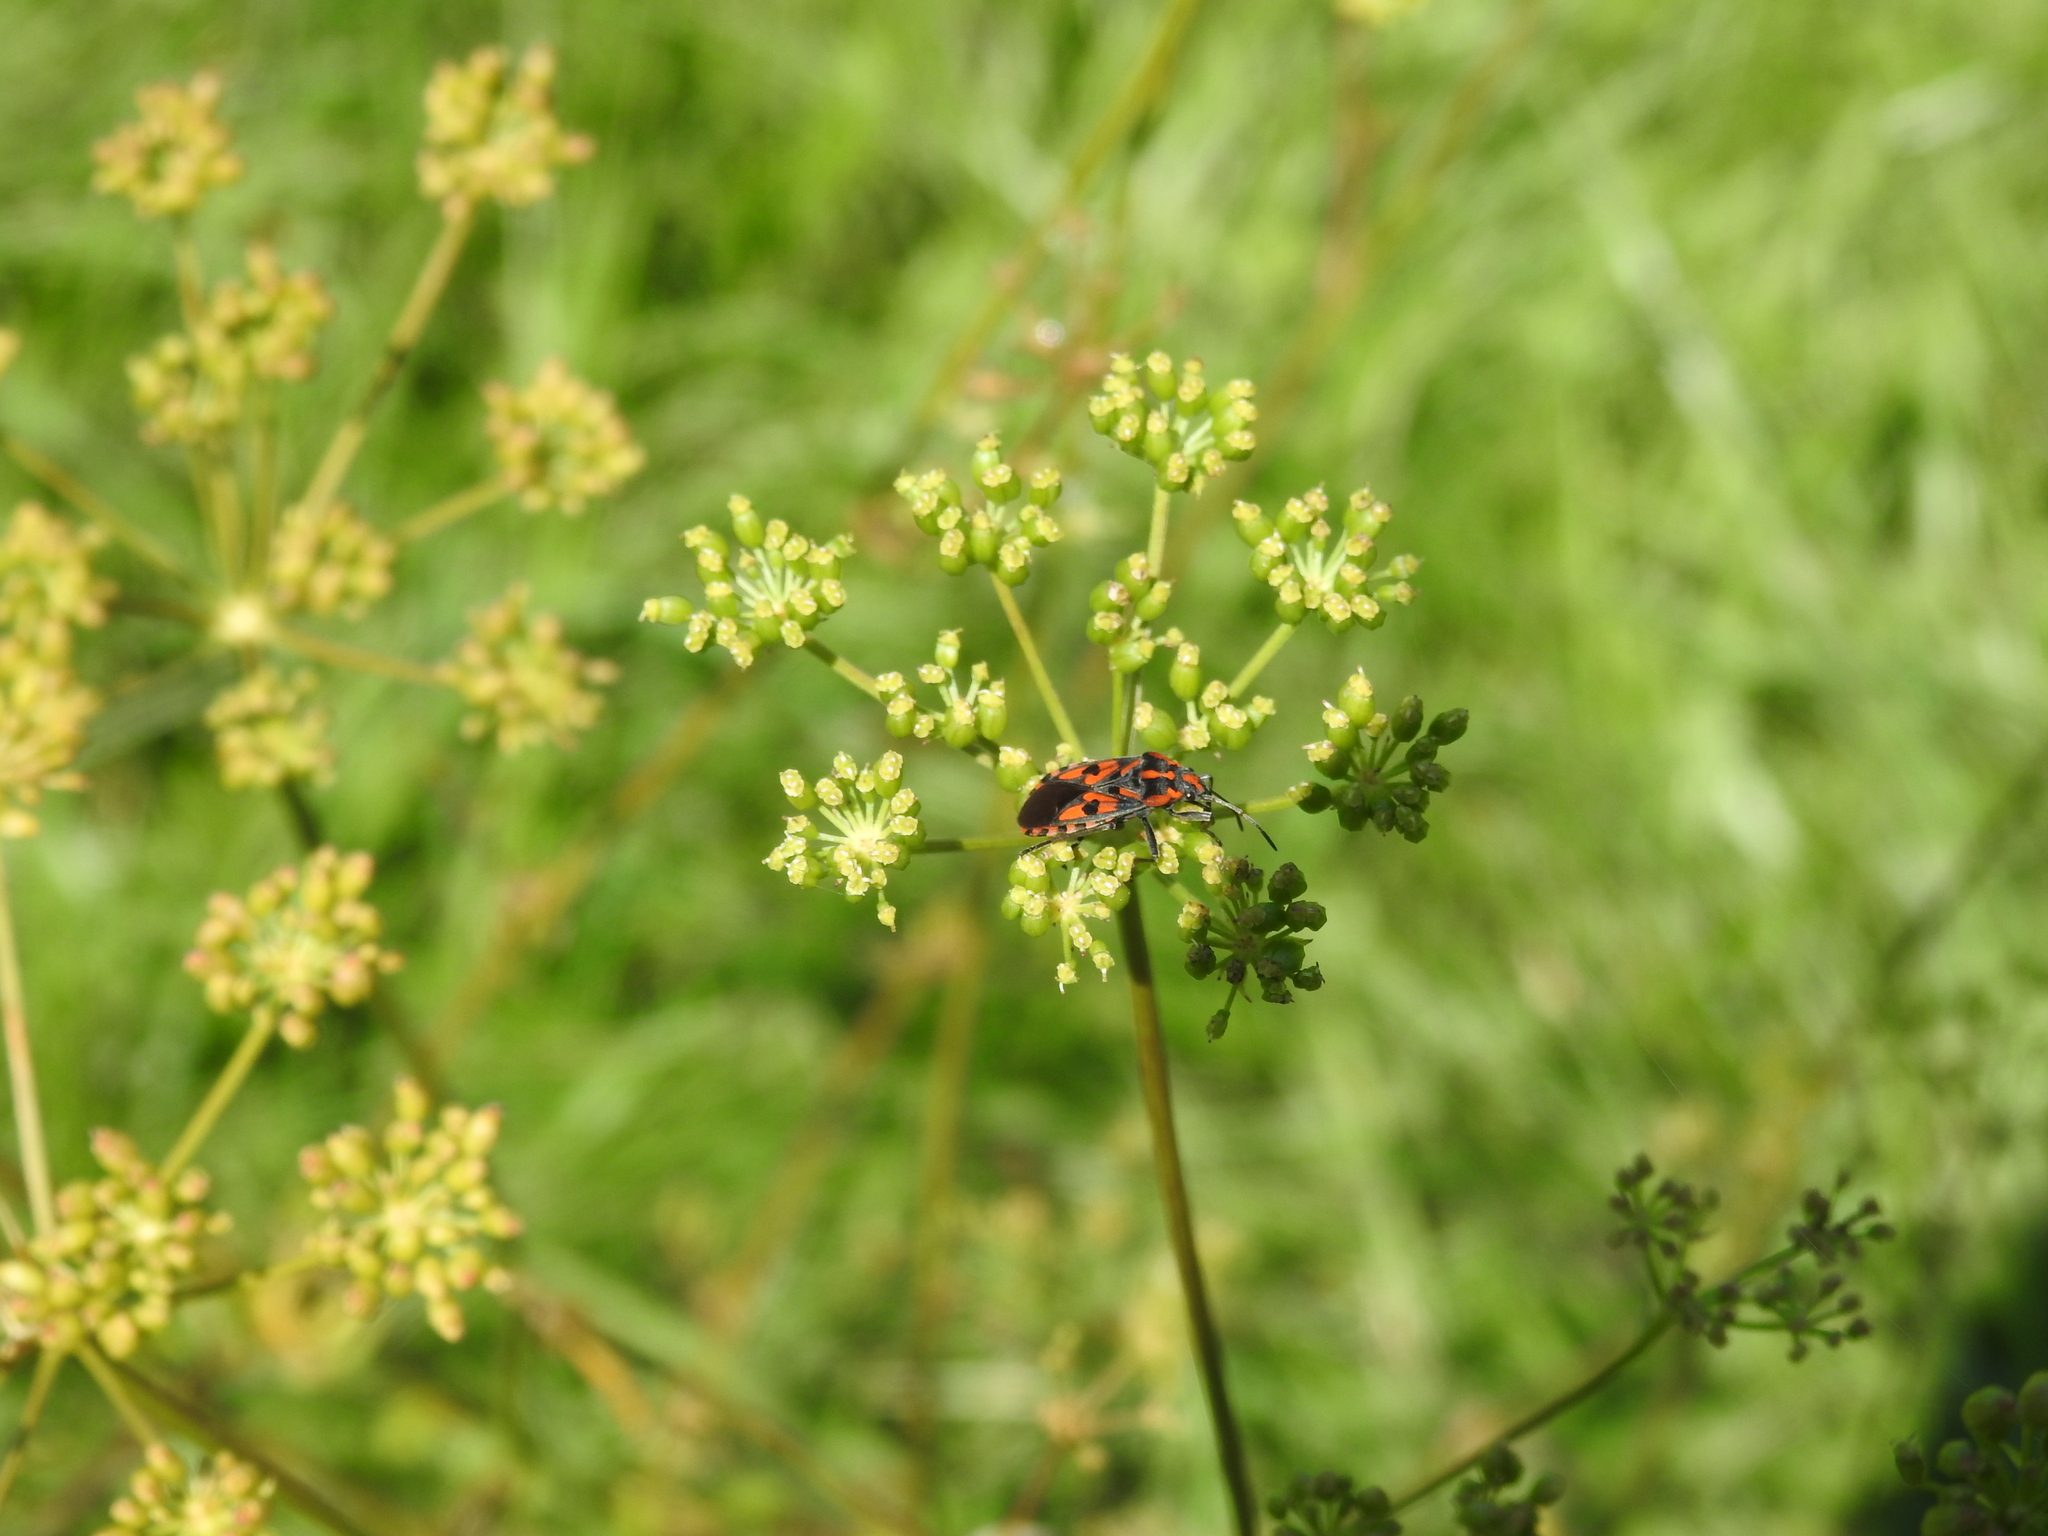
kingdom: Animalia
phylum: Arthropoda
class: Insecta
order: Hemiptera
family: Lygaeidae
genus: Spilostethus
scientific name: Spilostethus saxatilis
